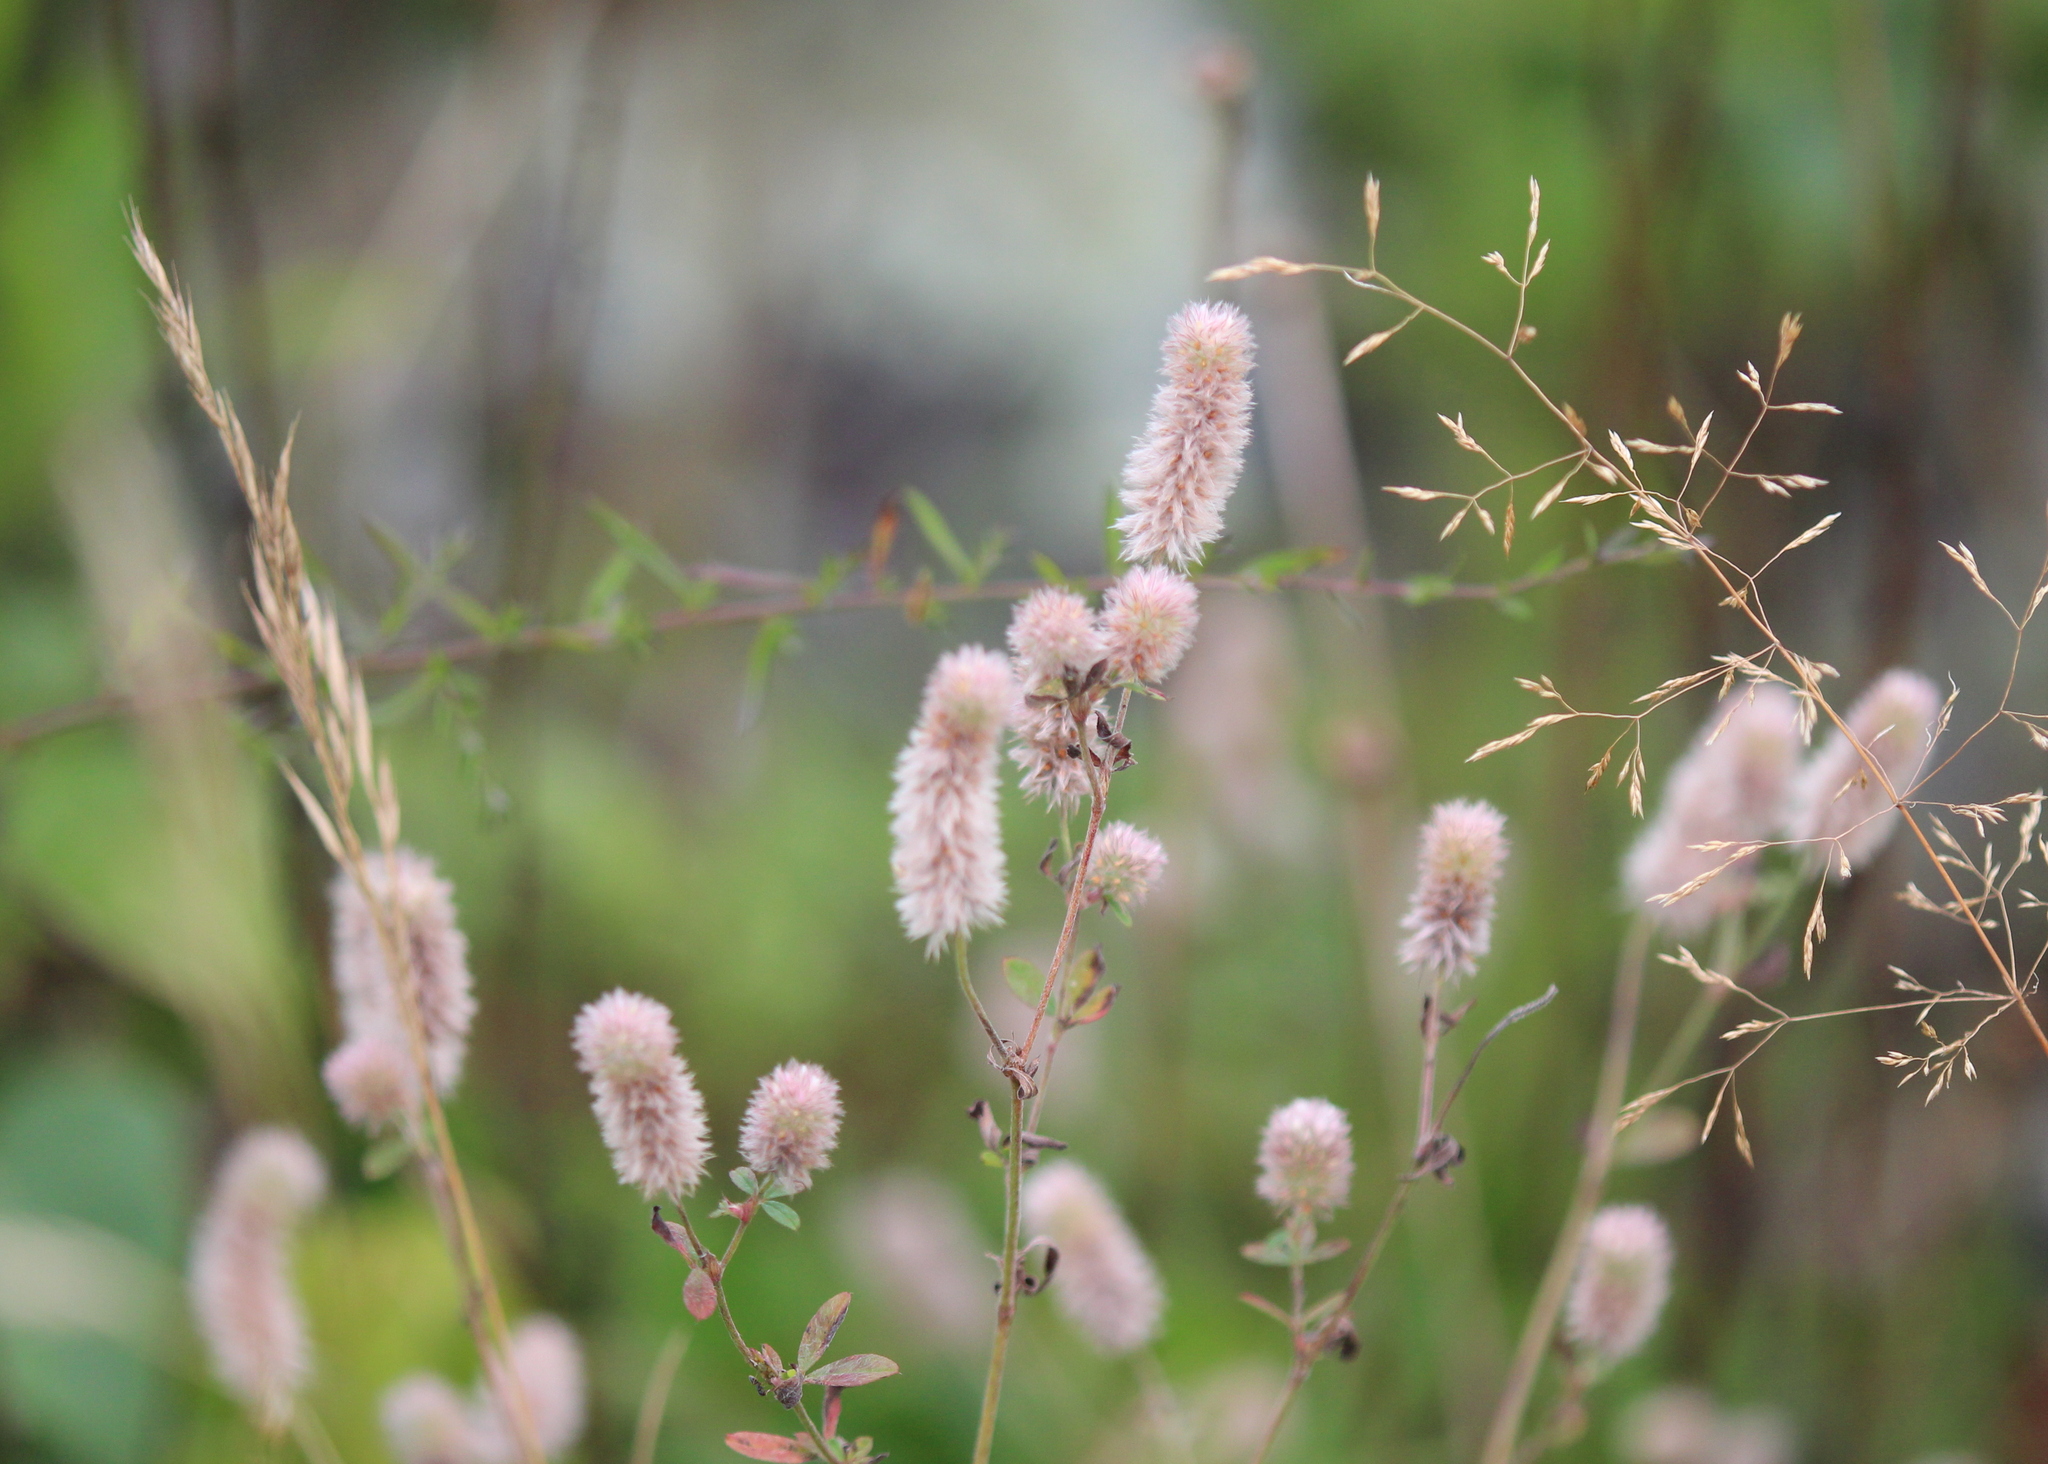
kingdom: Plantae
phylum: Tracheophyta
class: Magnoliopsida
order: Fabales
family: Fabaceae
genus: Trifolium
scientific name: Trifolium arvense
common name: Hare's-foot clover
